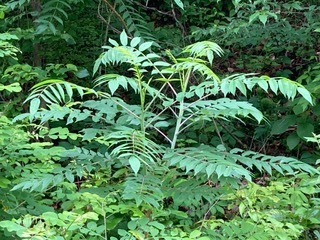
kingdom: Plantae
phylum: Tracheophyta
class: Magnoliopsida
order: Sapindales
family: Anacardiaceae
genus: Rhus
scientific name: Rhus glabra
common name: Scarlet sumac
